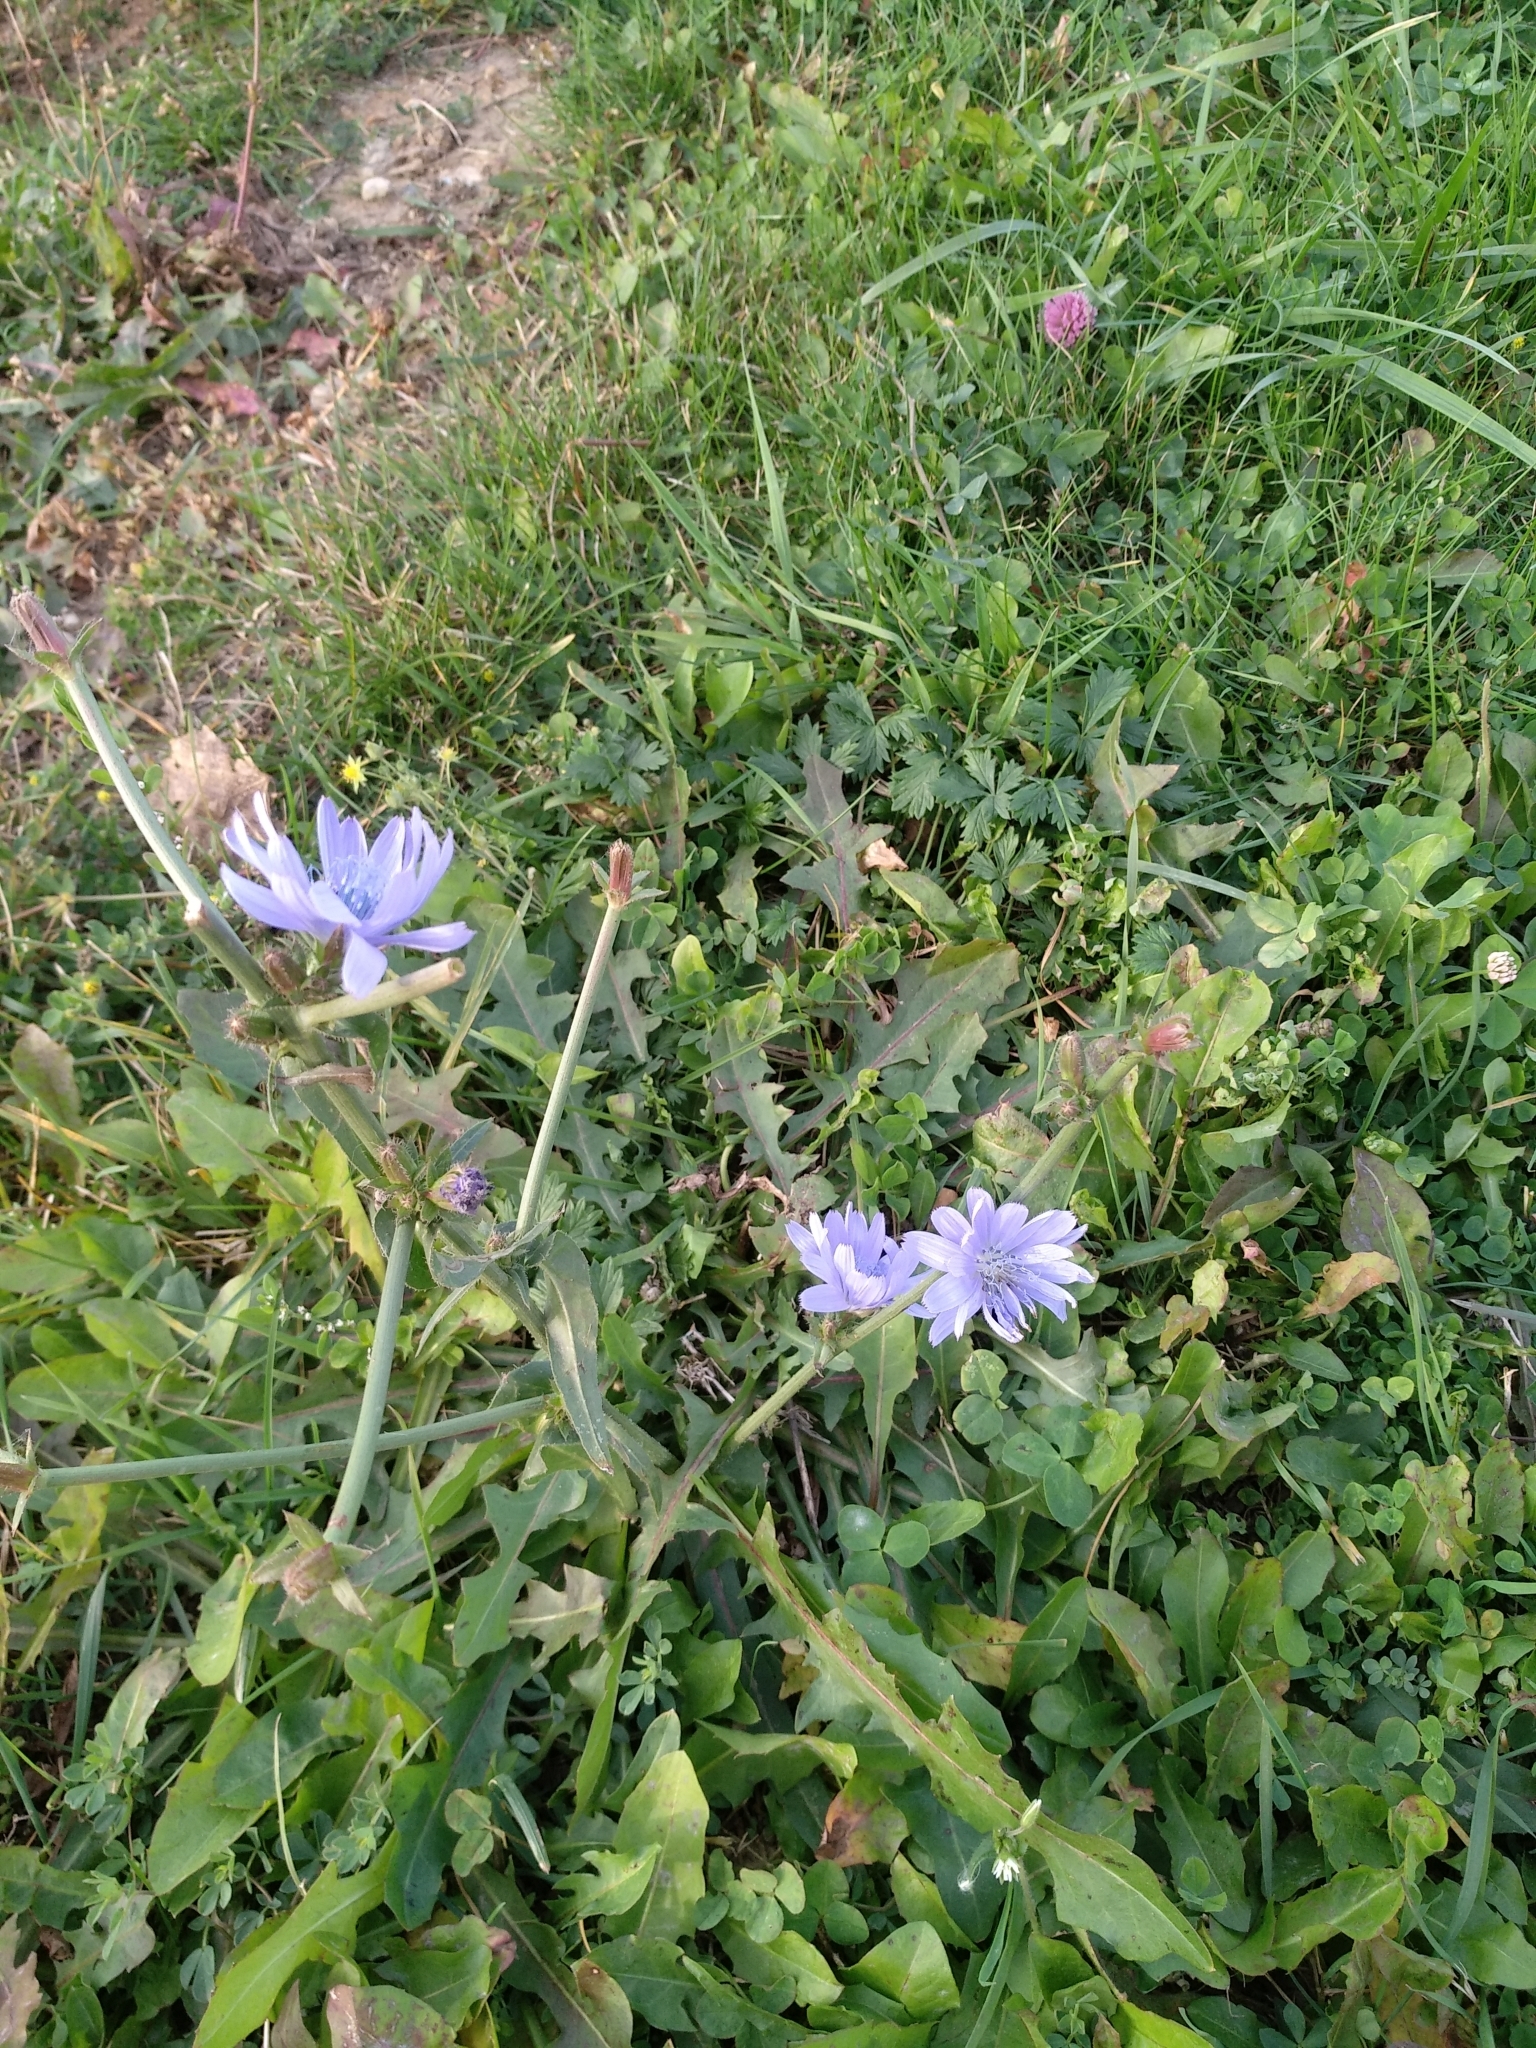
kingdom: Plantae
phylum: Tracheophyta
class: Magnoliopsida
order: Asterales
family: Asteraceae
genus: Cichorium
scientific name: Cichorium intybus
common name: Chicory
